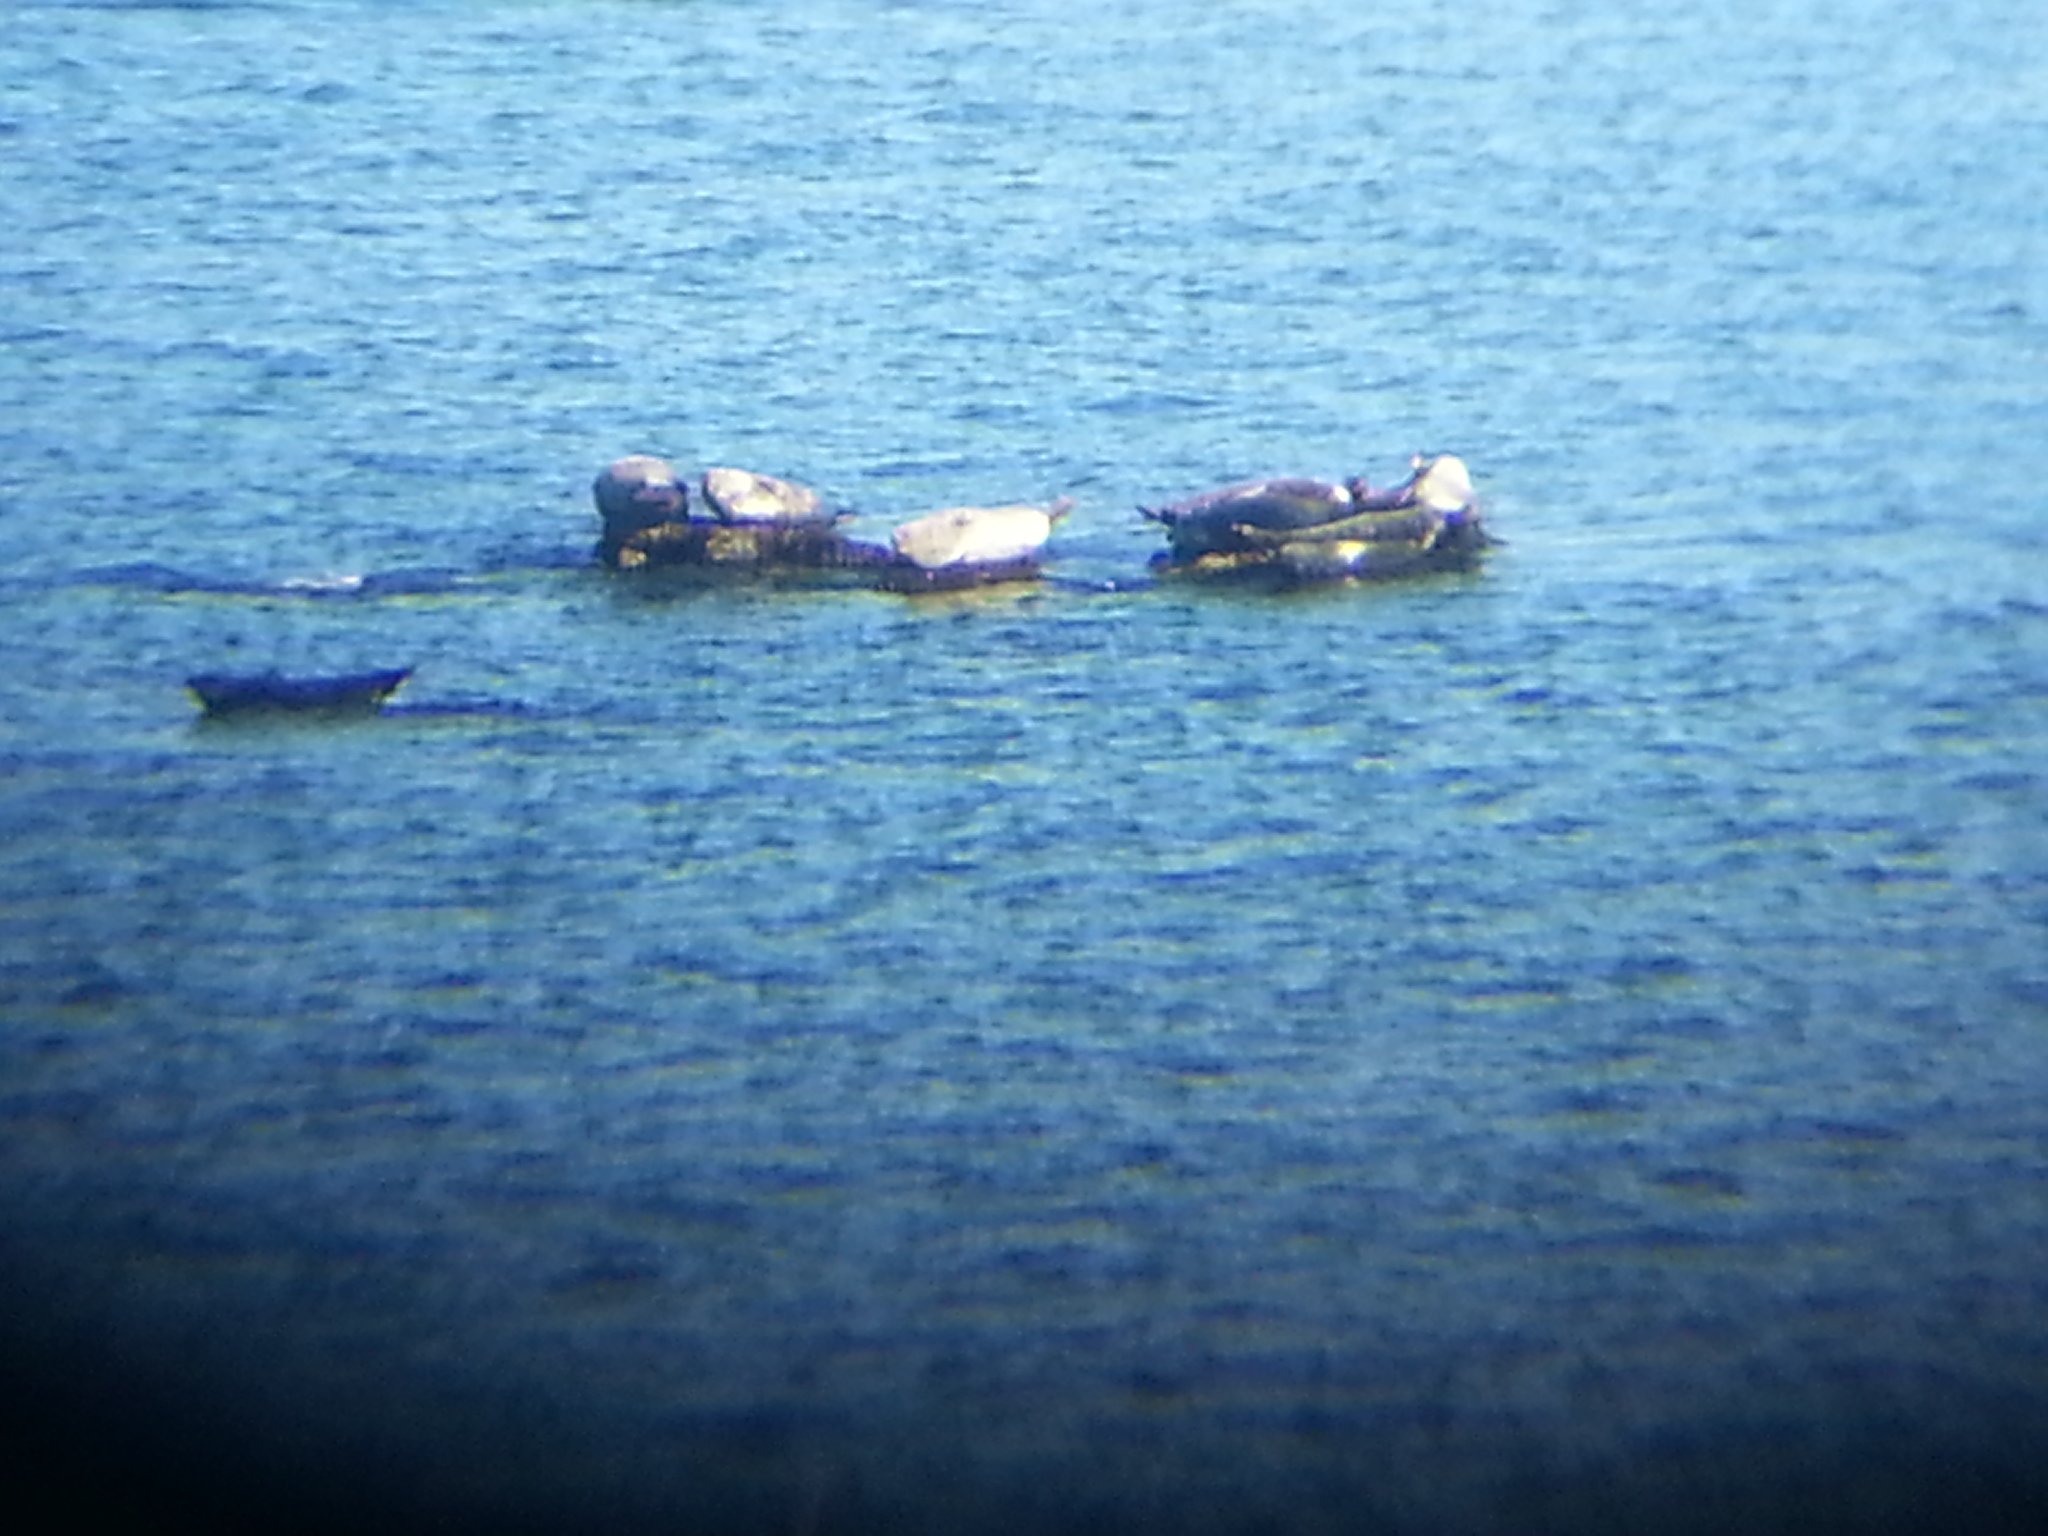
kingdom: Animalia
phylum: Chordata
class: Mammalia
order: Carnivora
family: Phocidae
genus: Phoca
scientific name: Phoca vitulina
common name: Harbor seal
